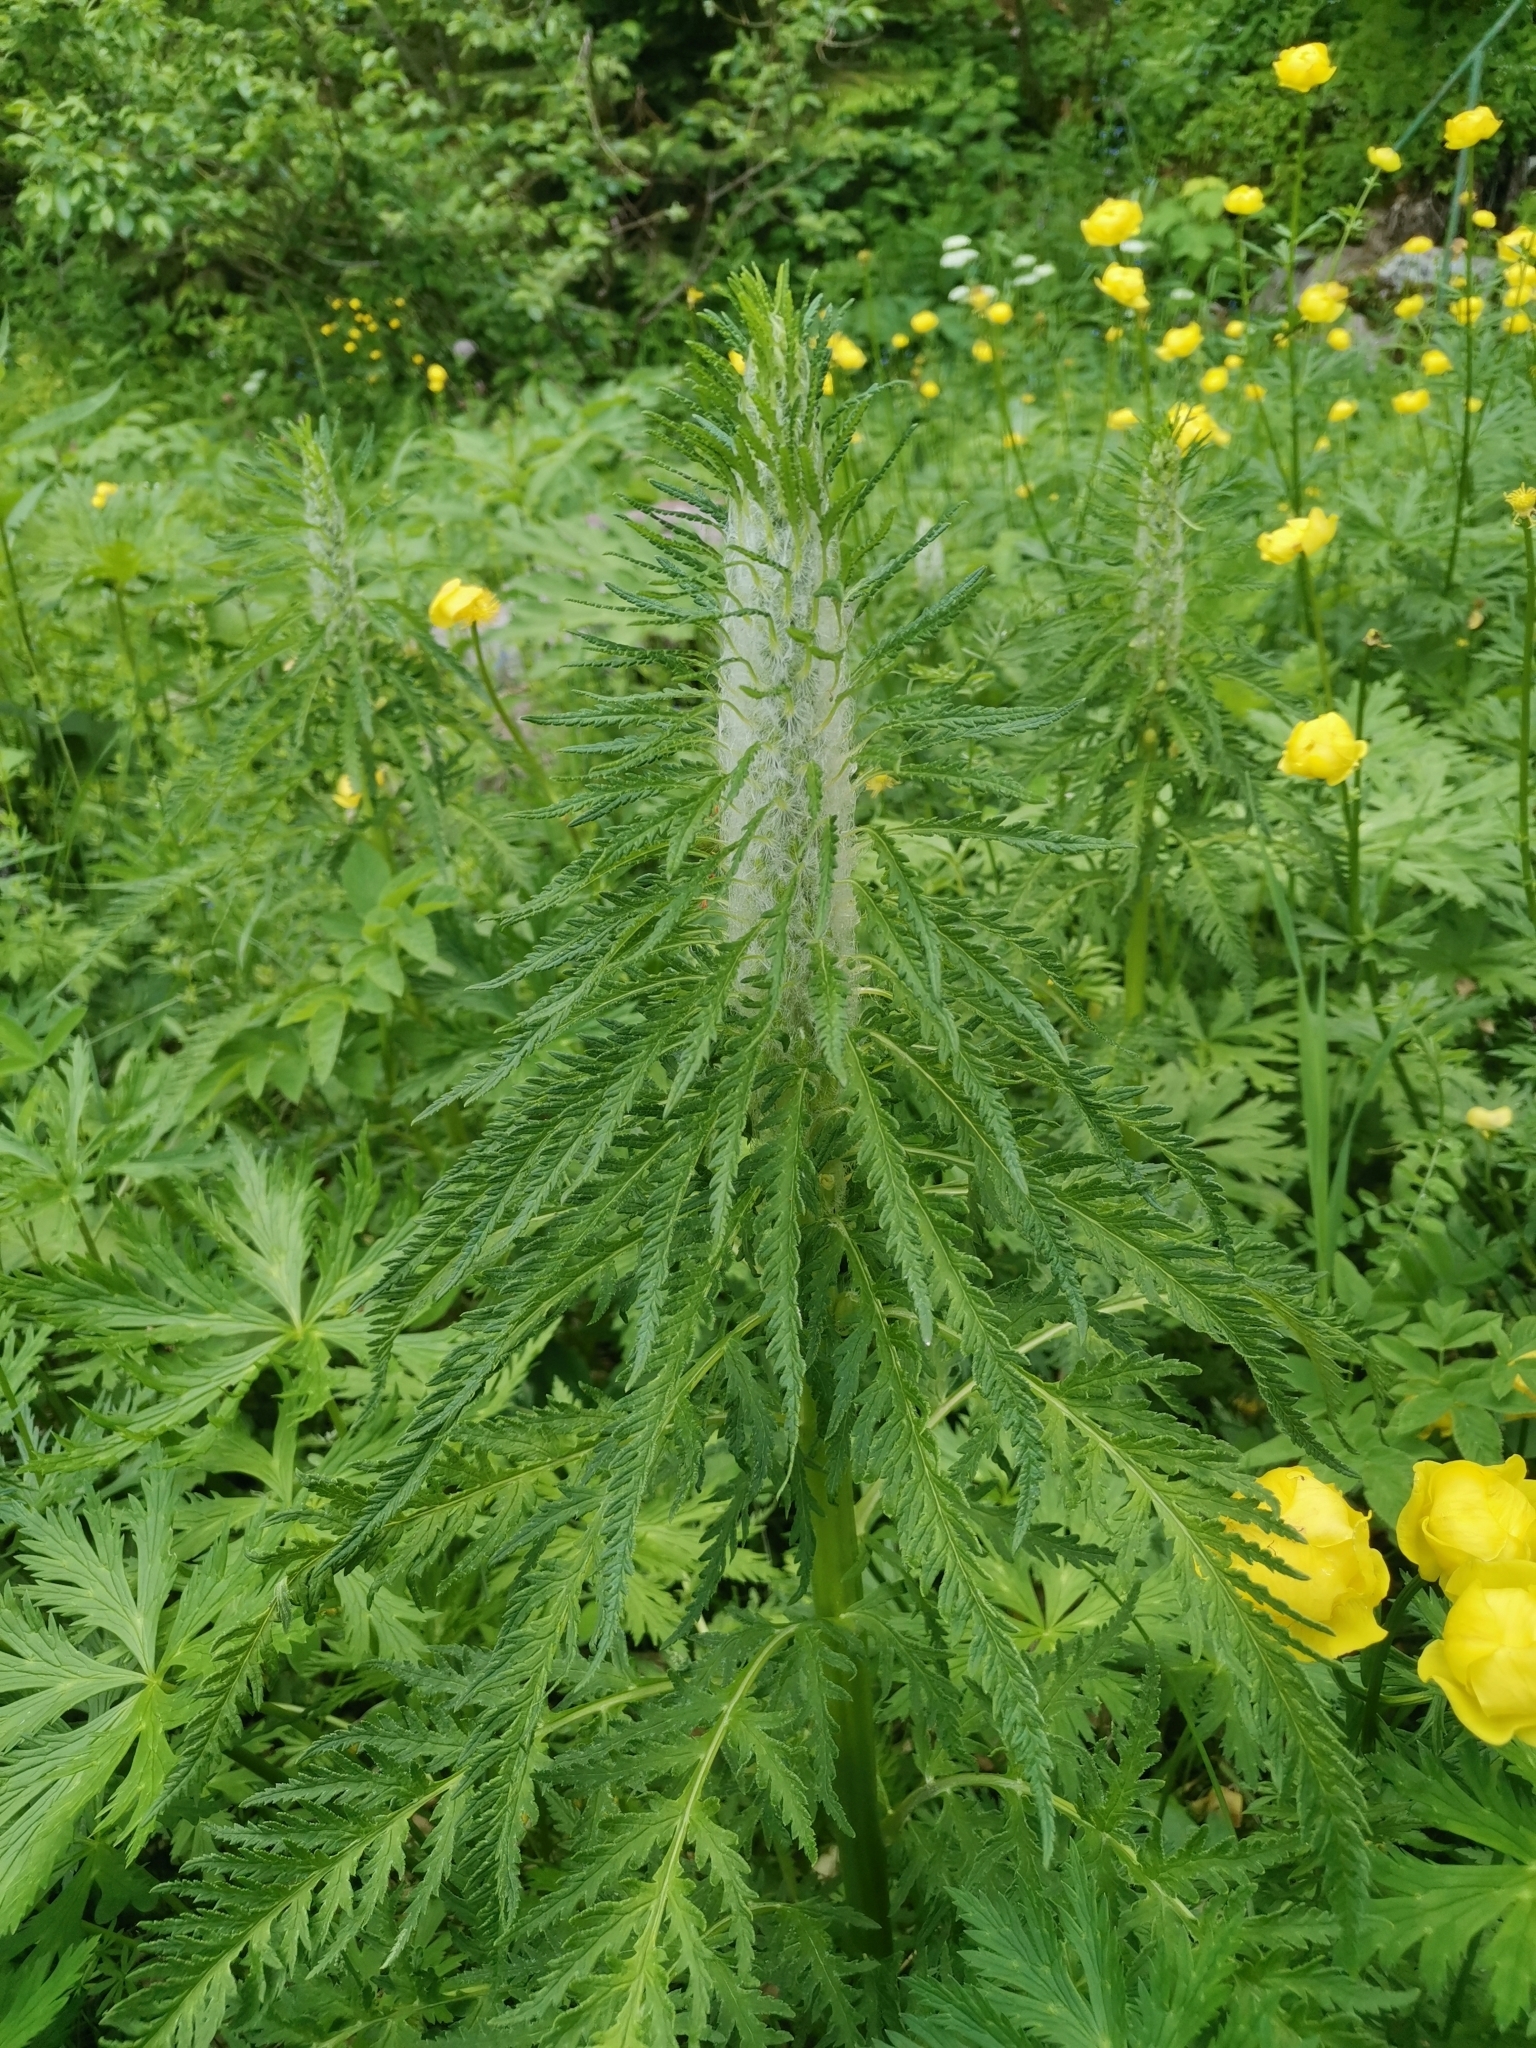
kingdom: Plantae
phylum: Tracheophyta
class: Magnoliopsida
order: Ranunculales
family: Ranunculaceae
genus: Trollius
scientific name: Trollius europaeus
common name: European globeflower
